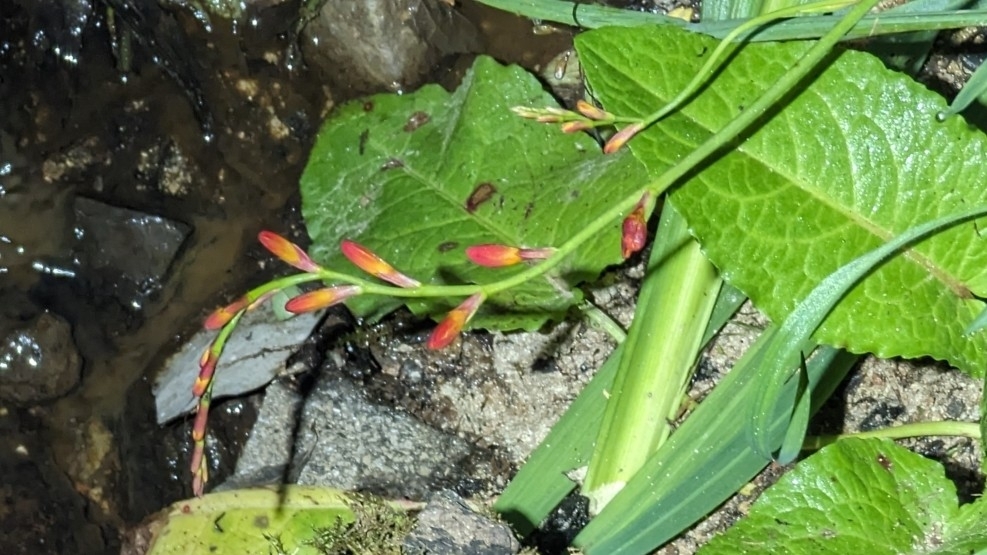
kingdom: Plantae
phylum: Tracheophyta
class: Liliopsida
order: Asparagales
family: Iridaceae
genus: Crocosmia
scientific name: Crocosmia crocosmiiflora
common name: Montbretia
